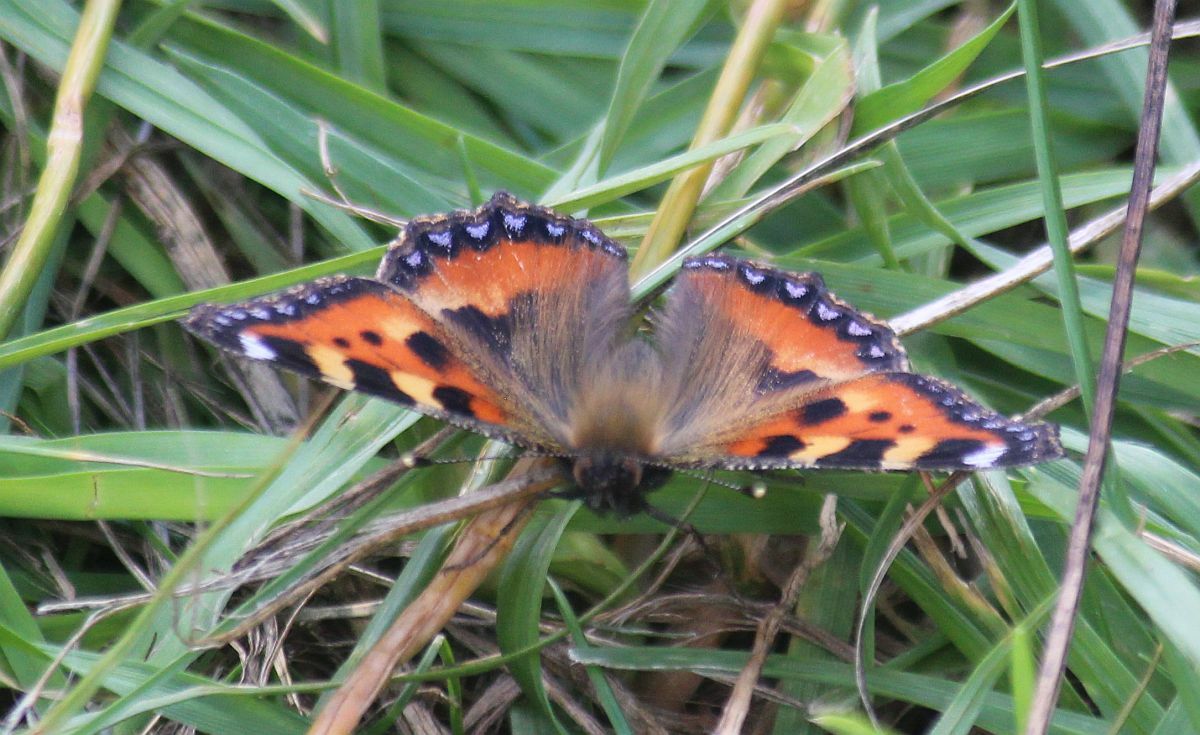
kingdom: Animalia
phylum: Arthropoda
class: Insecta
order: Lepidoptera
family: Nymphalidae
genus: Aglais
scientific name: Aglais urticae
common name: Small tortoiseshell
